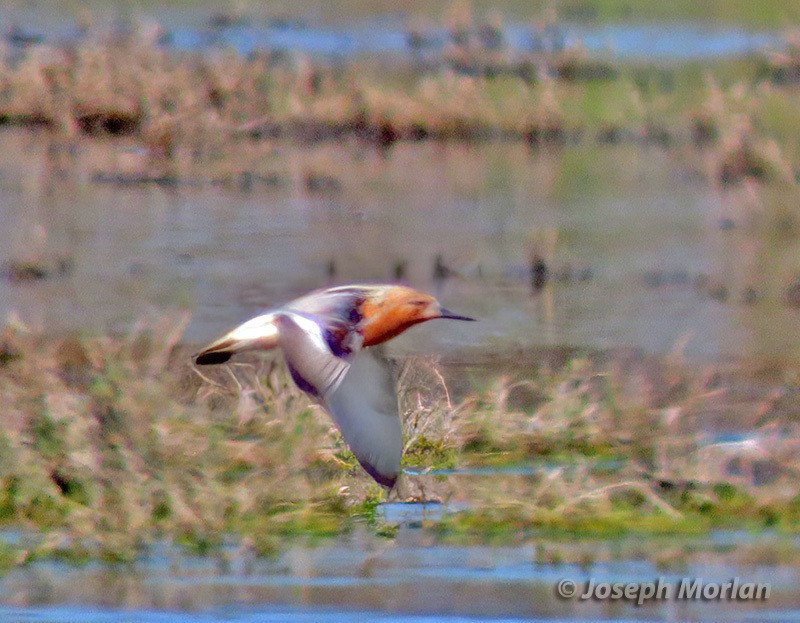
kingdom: Animalia
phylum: Chordata
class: Aves
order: Charadriiformes
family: Scolopacidae
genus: Calidris
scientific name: Calidris canutus
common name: Red knot
